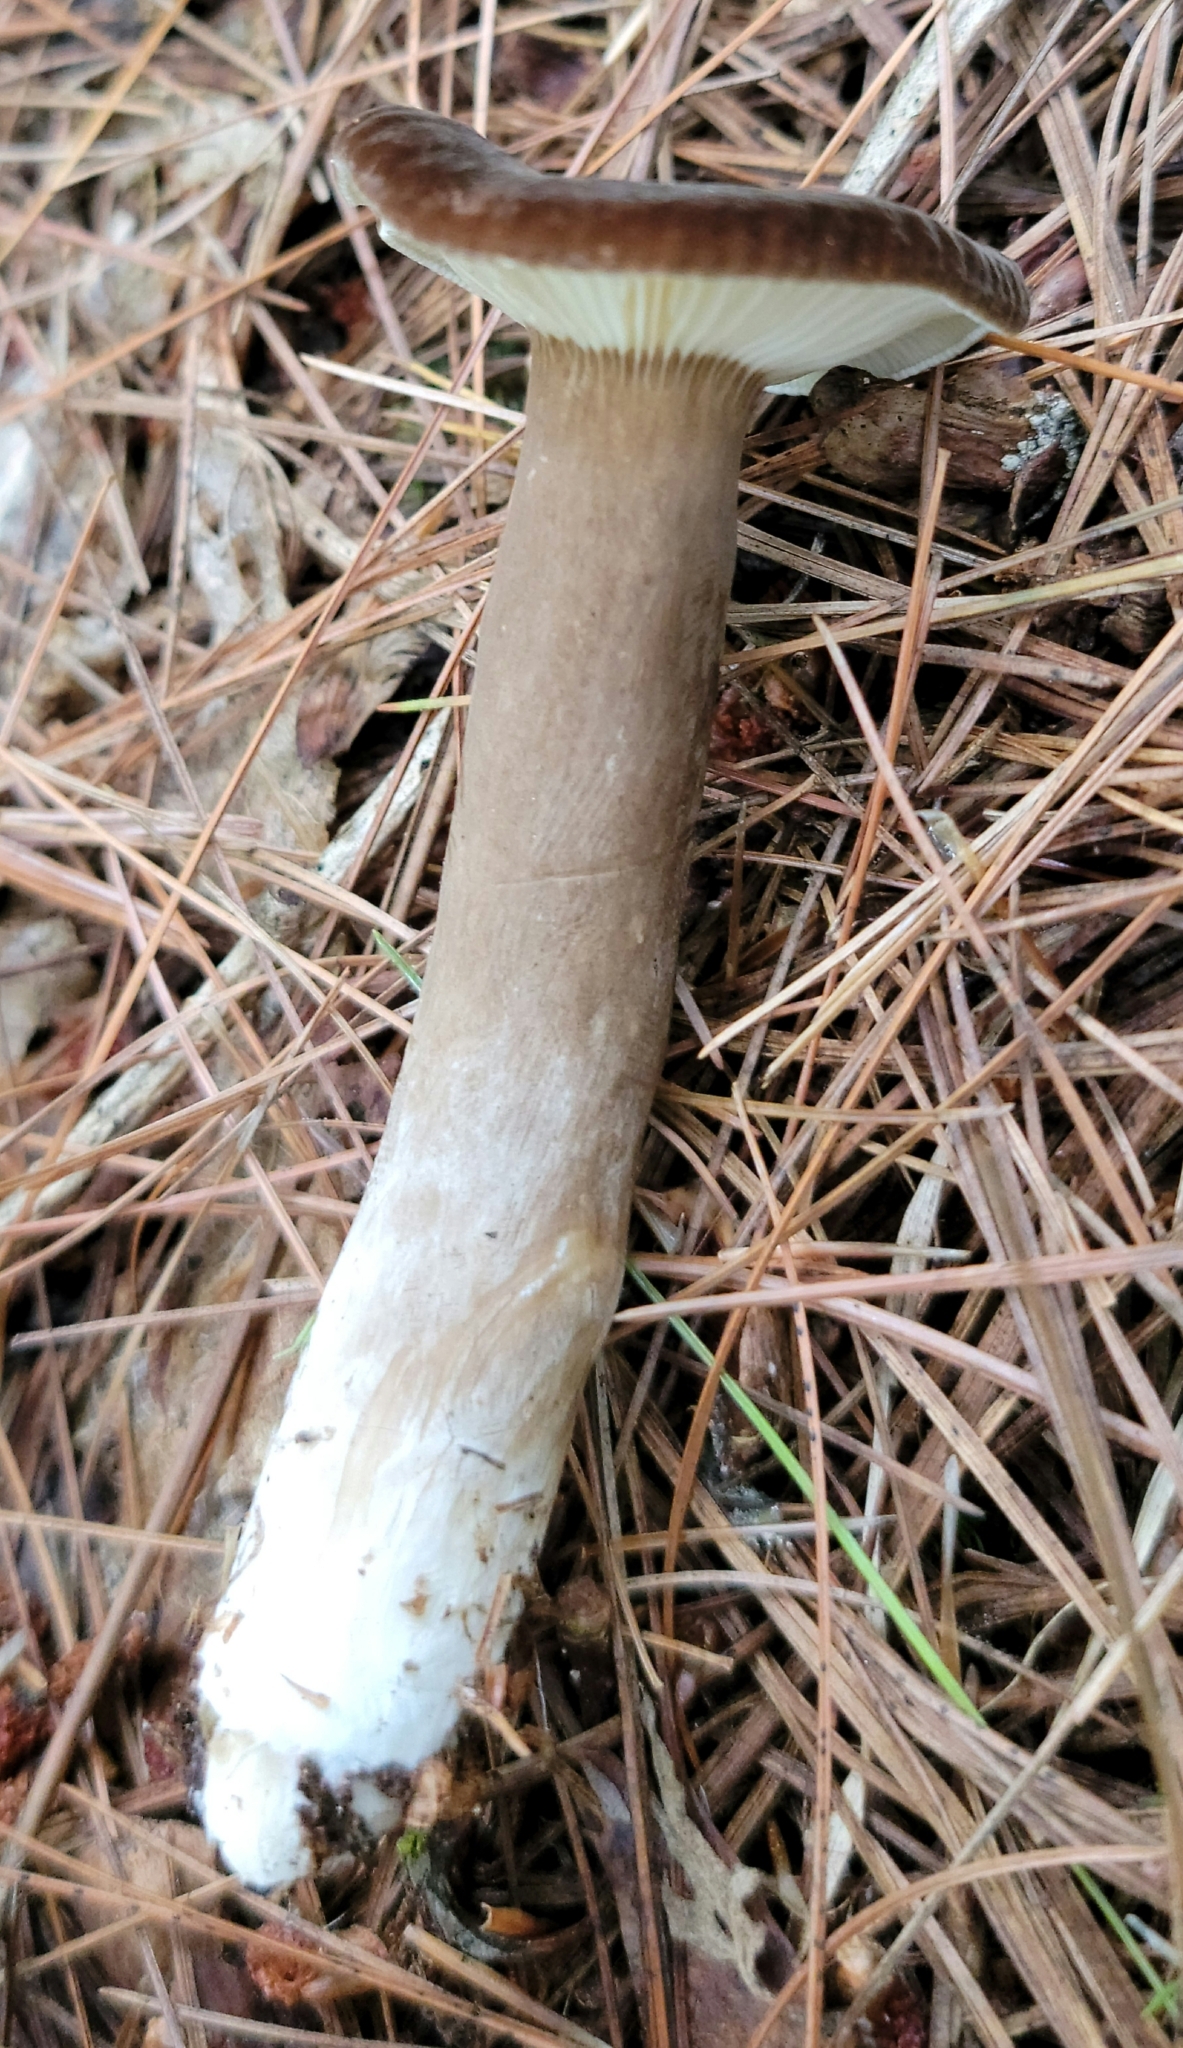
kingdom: Fungi
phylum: Basidiomycota
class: Agaricomycetes
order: Russulales
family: Russulaceae
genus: Lactarius
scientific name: Lactarius lignyotus
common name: Velvet milkcap
